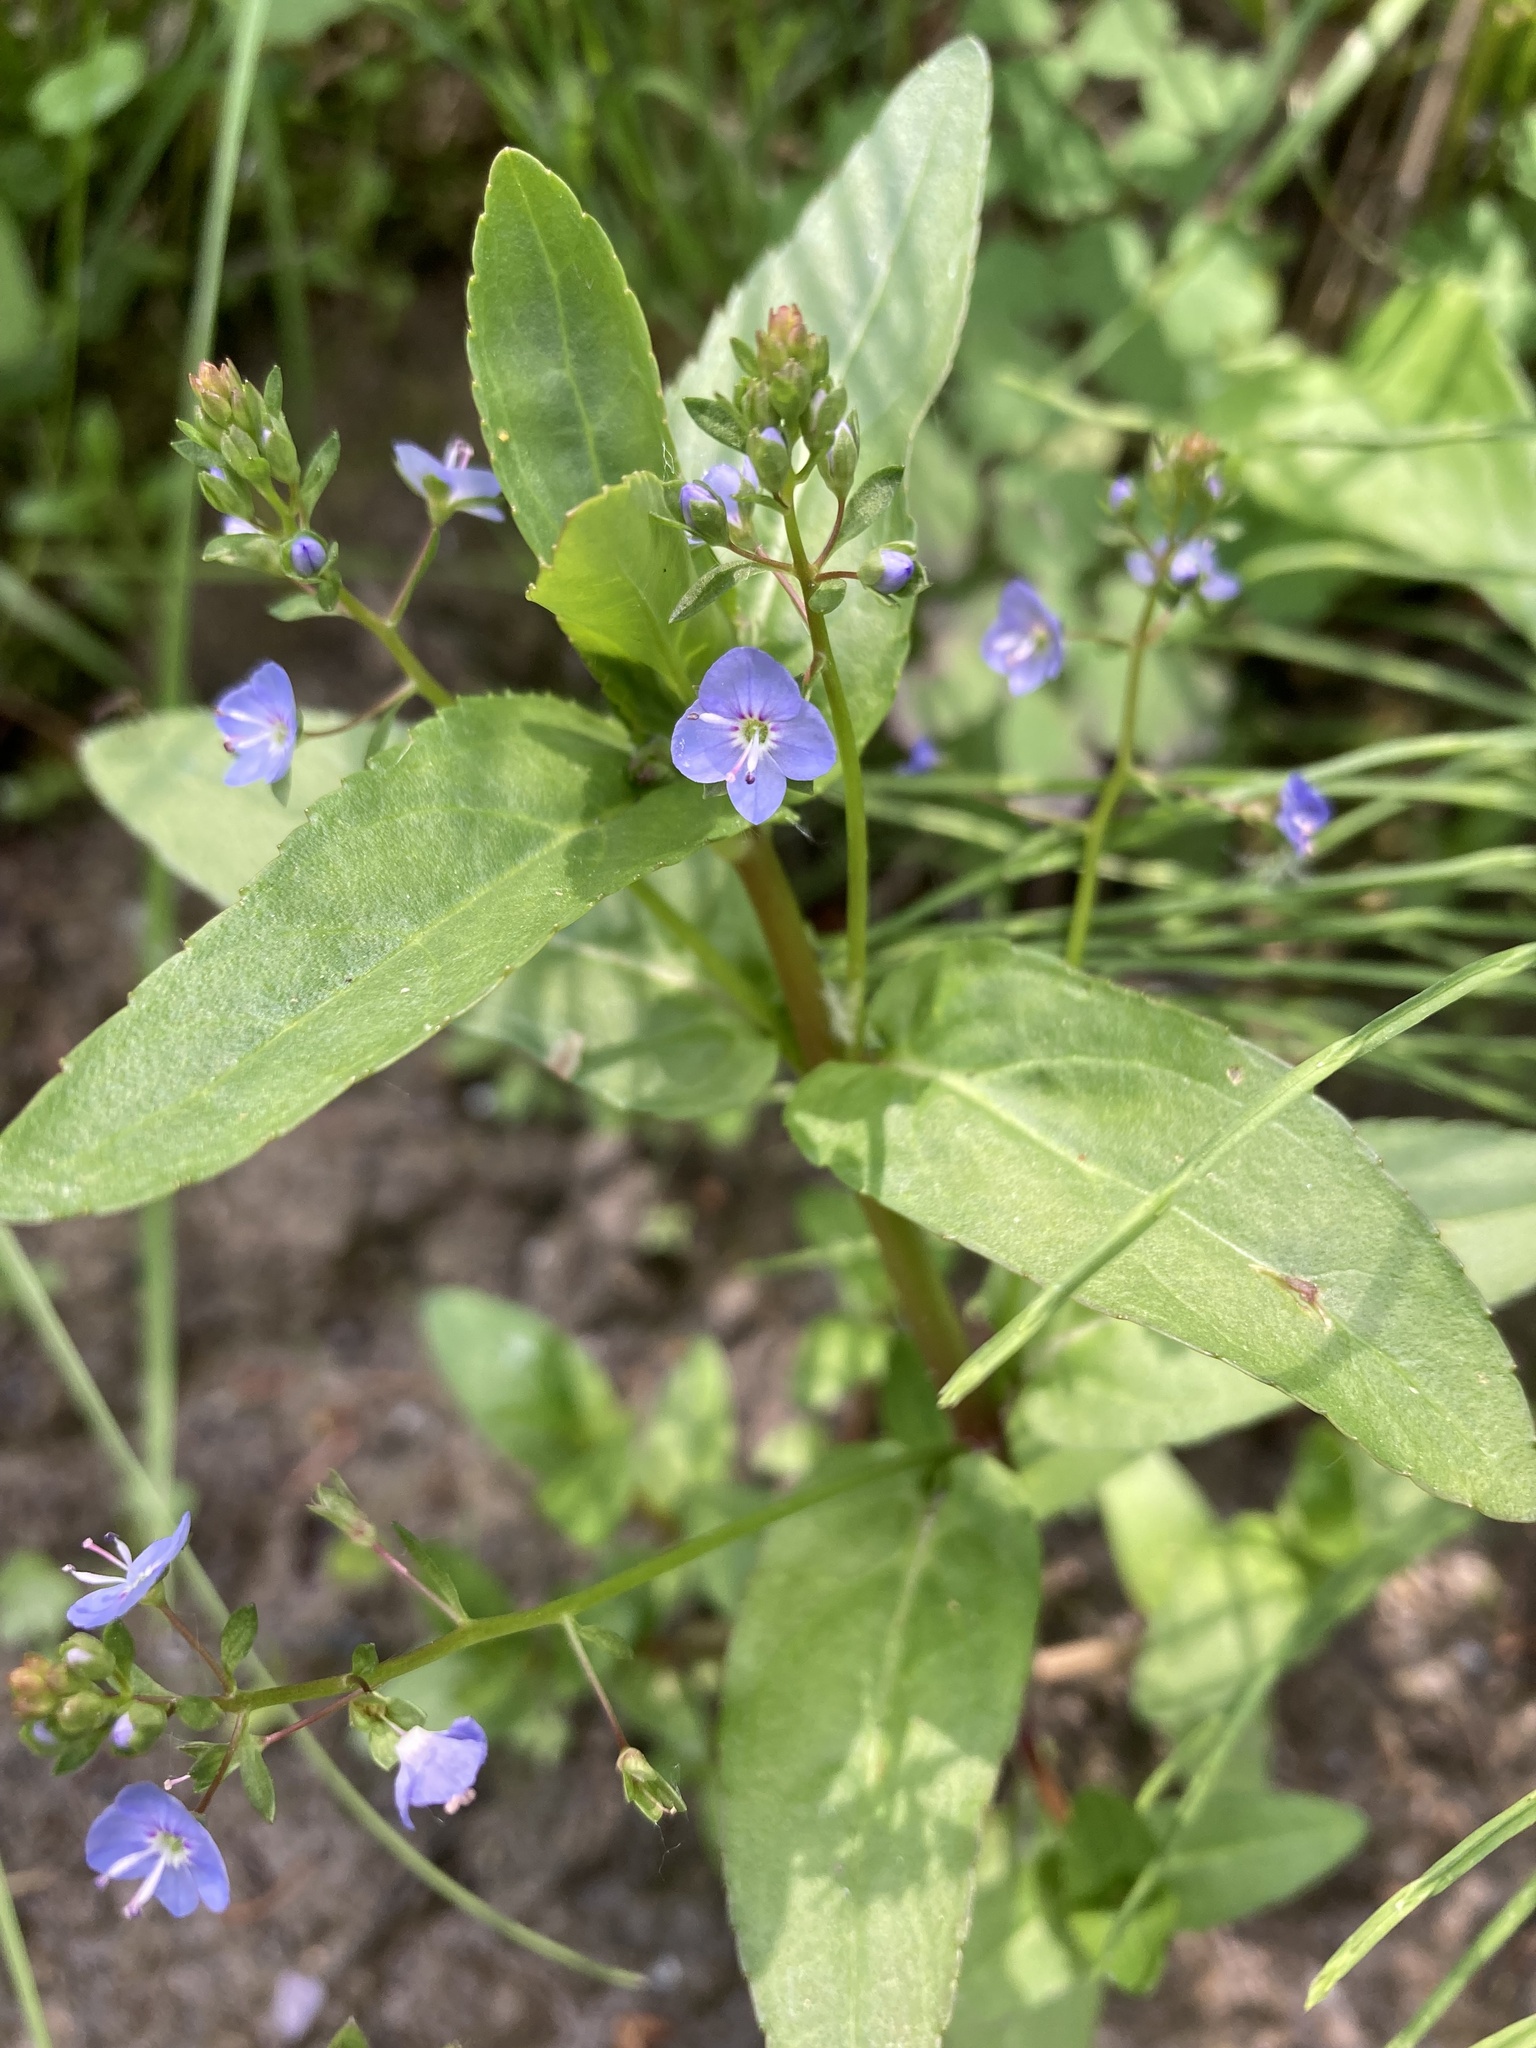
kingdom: Plantae
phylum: Tracheophyta
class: Magnoliopsida
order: Lamiales
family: Plantaginaceae
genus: Veronica
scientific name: Veronica americana
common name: American brooklime
